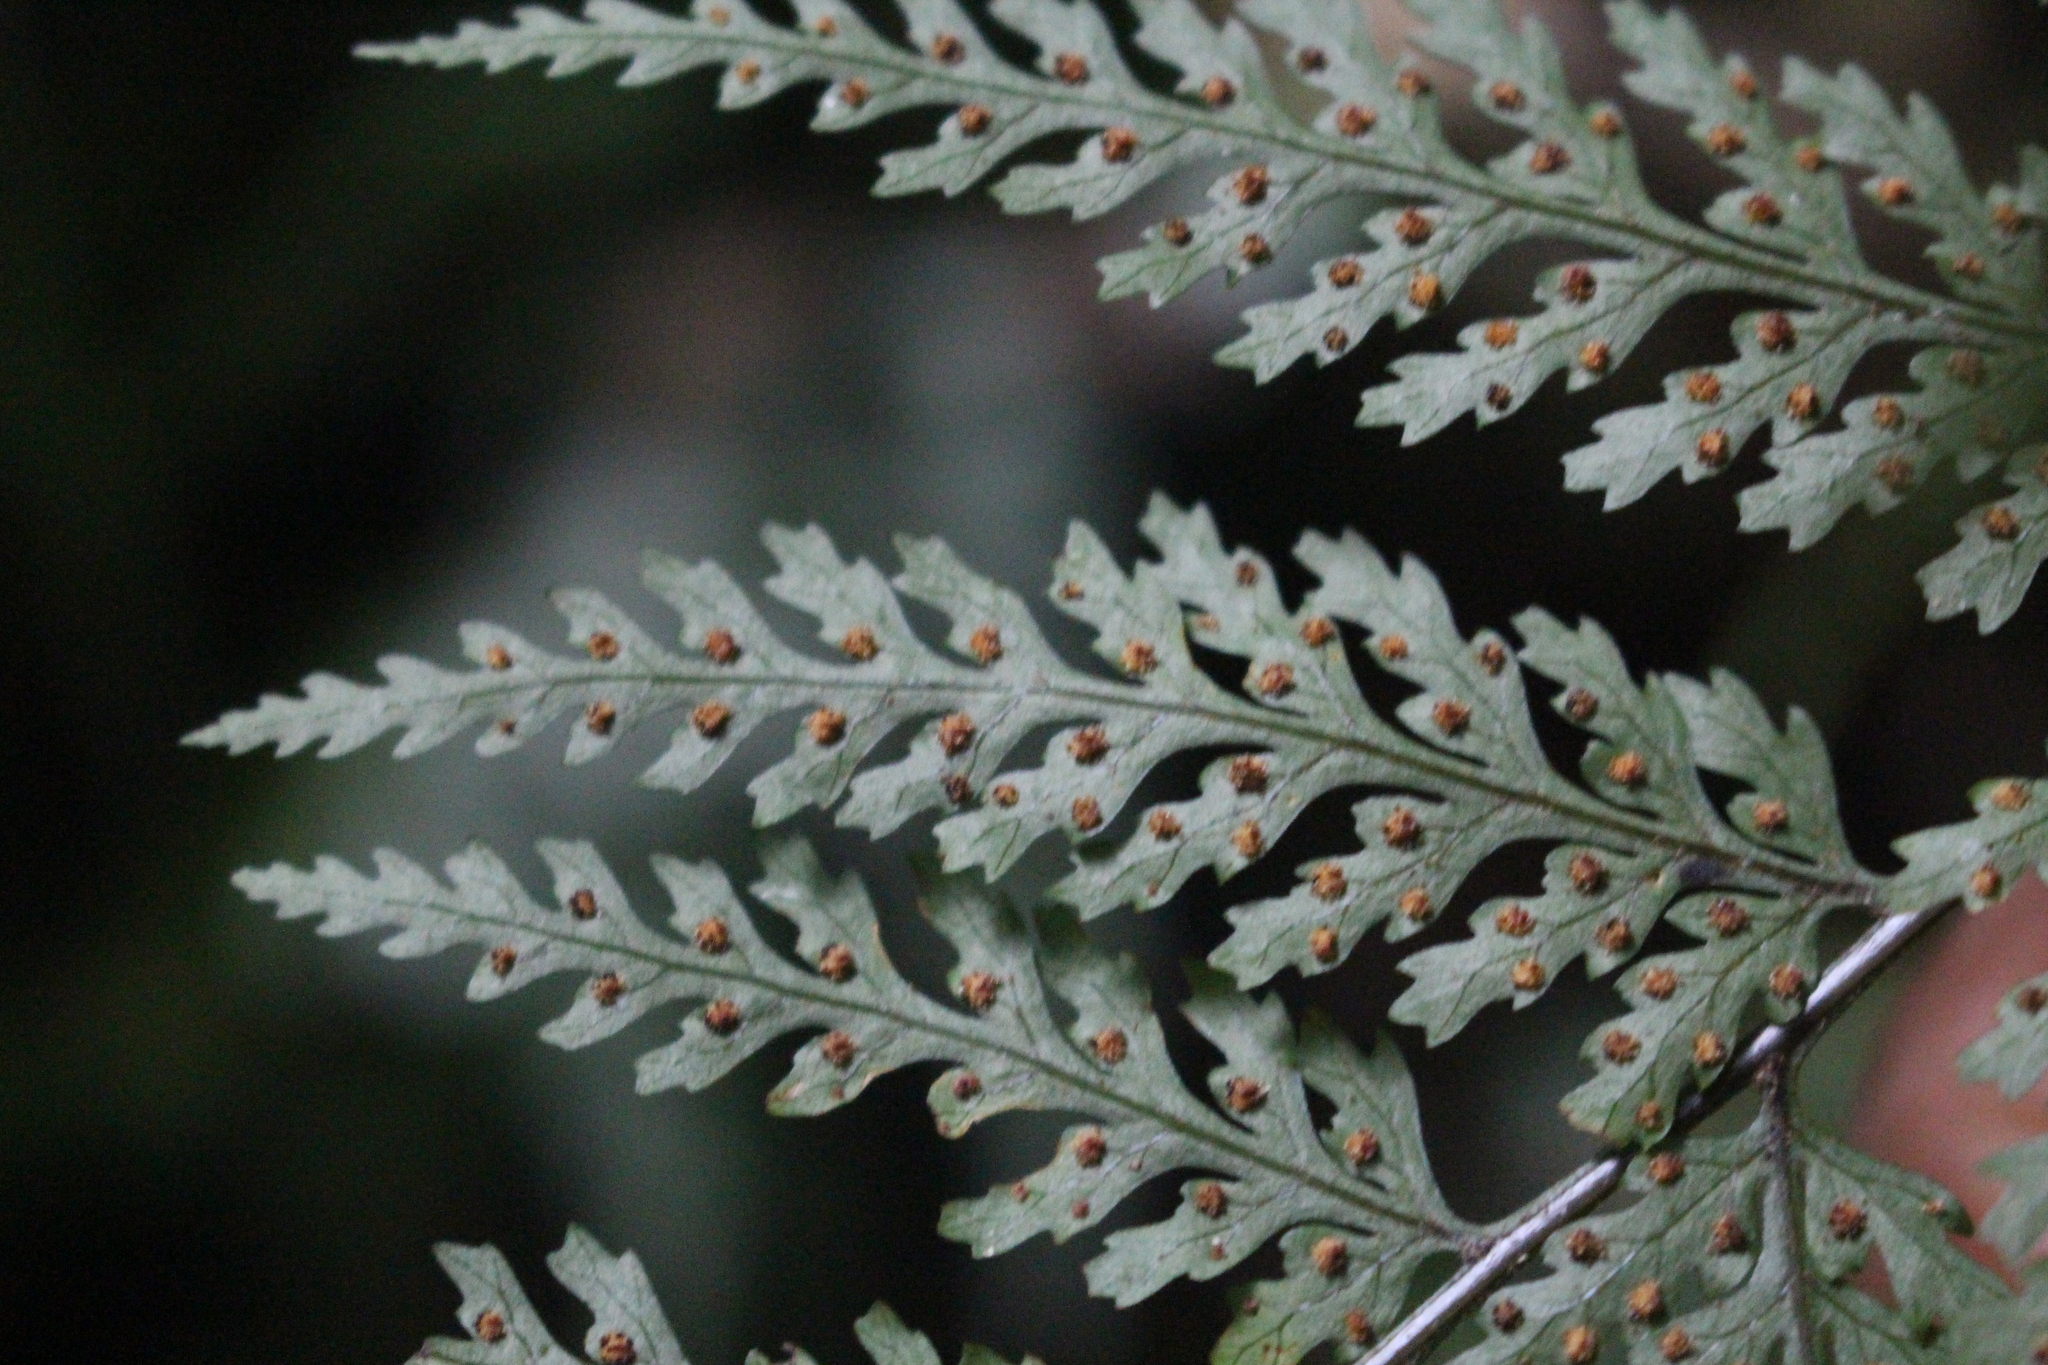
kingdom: Plantae
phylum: Tracheophyta
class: Polypodiopsida
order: Polypodiales
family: Dryopteridaceae
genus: Parapolystichum
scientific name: Parapolystichum glabellum
